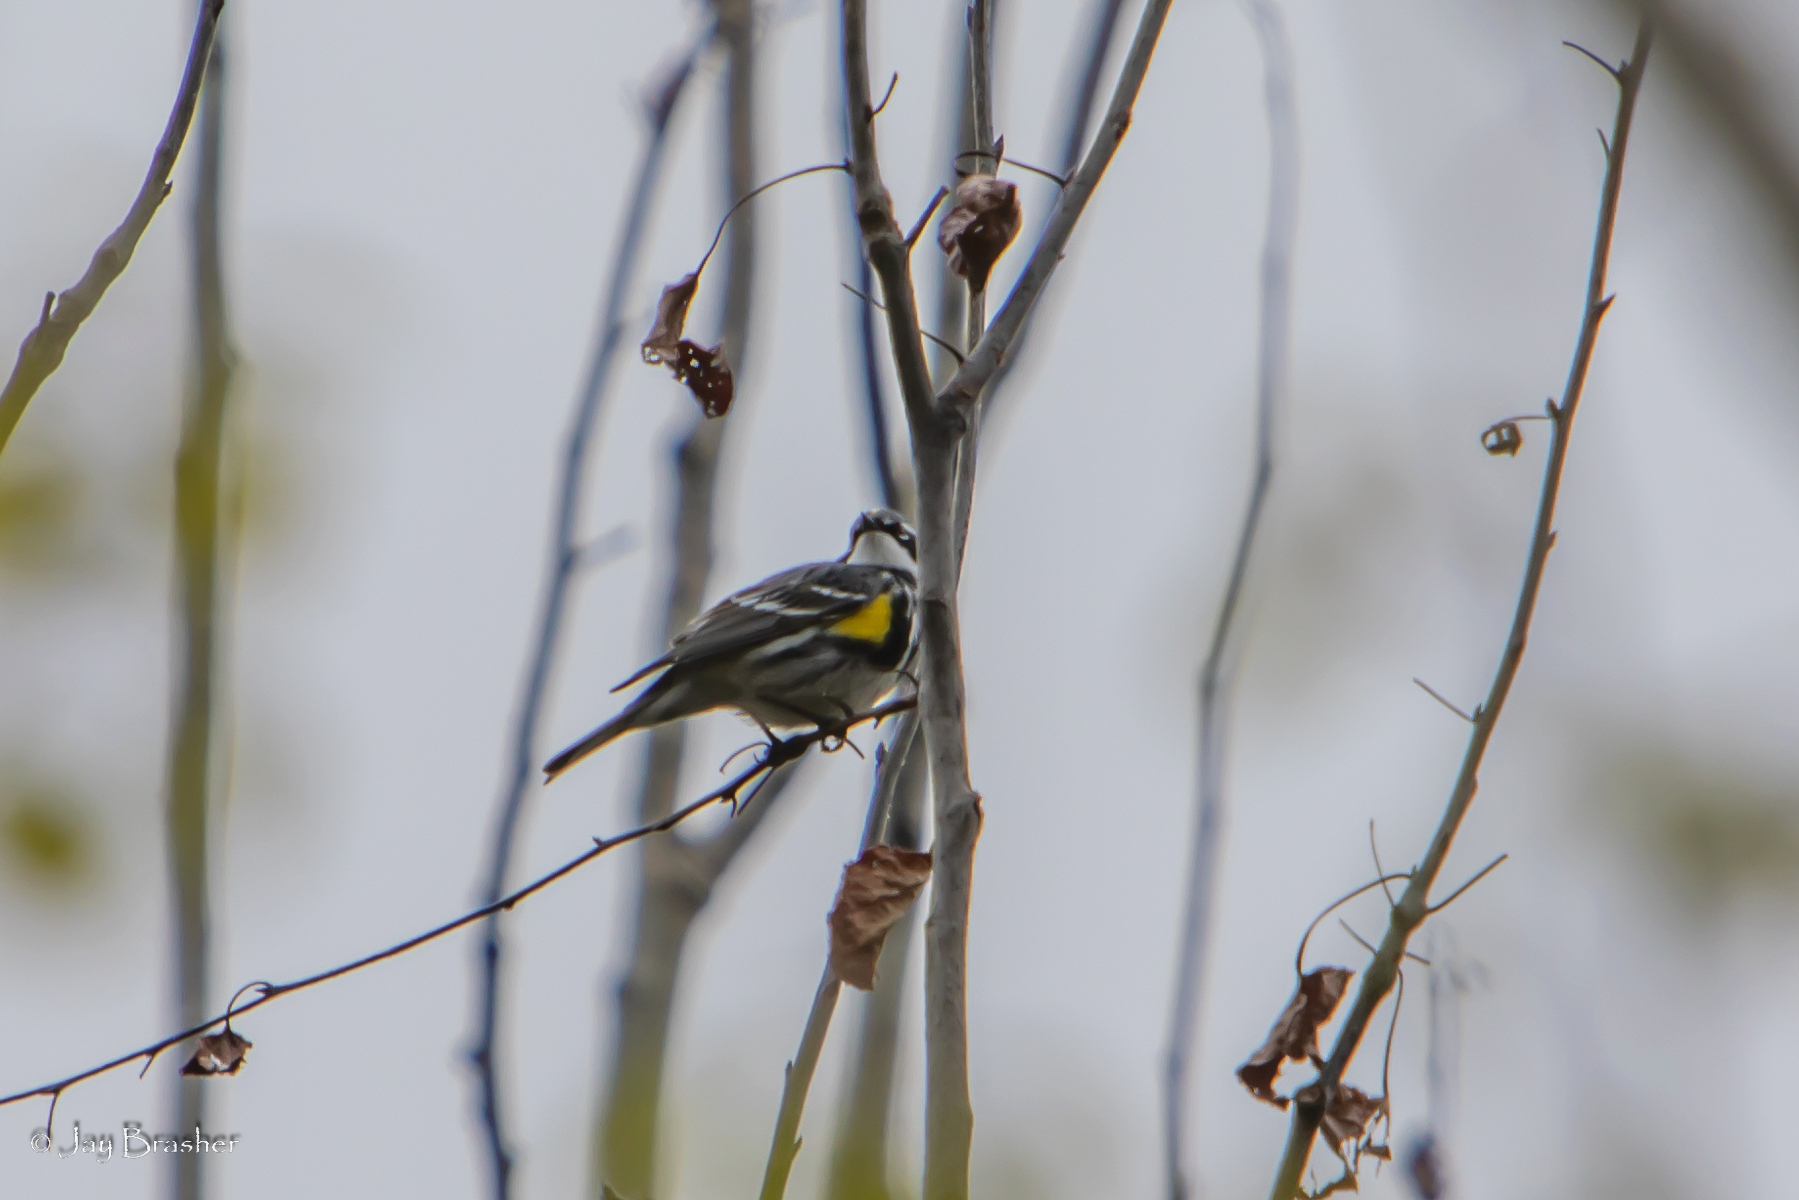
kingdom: Animalia
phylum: Chordata
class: Aves
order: Passeriformes
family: Parulidae
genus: Setophaga
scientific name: Setophaga coronata
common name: Myrtle warbler
